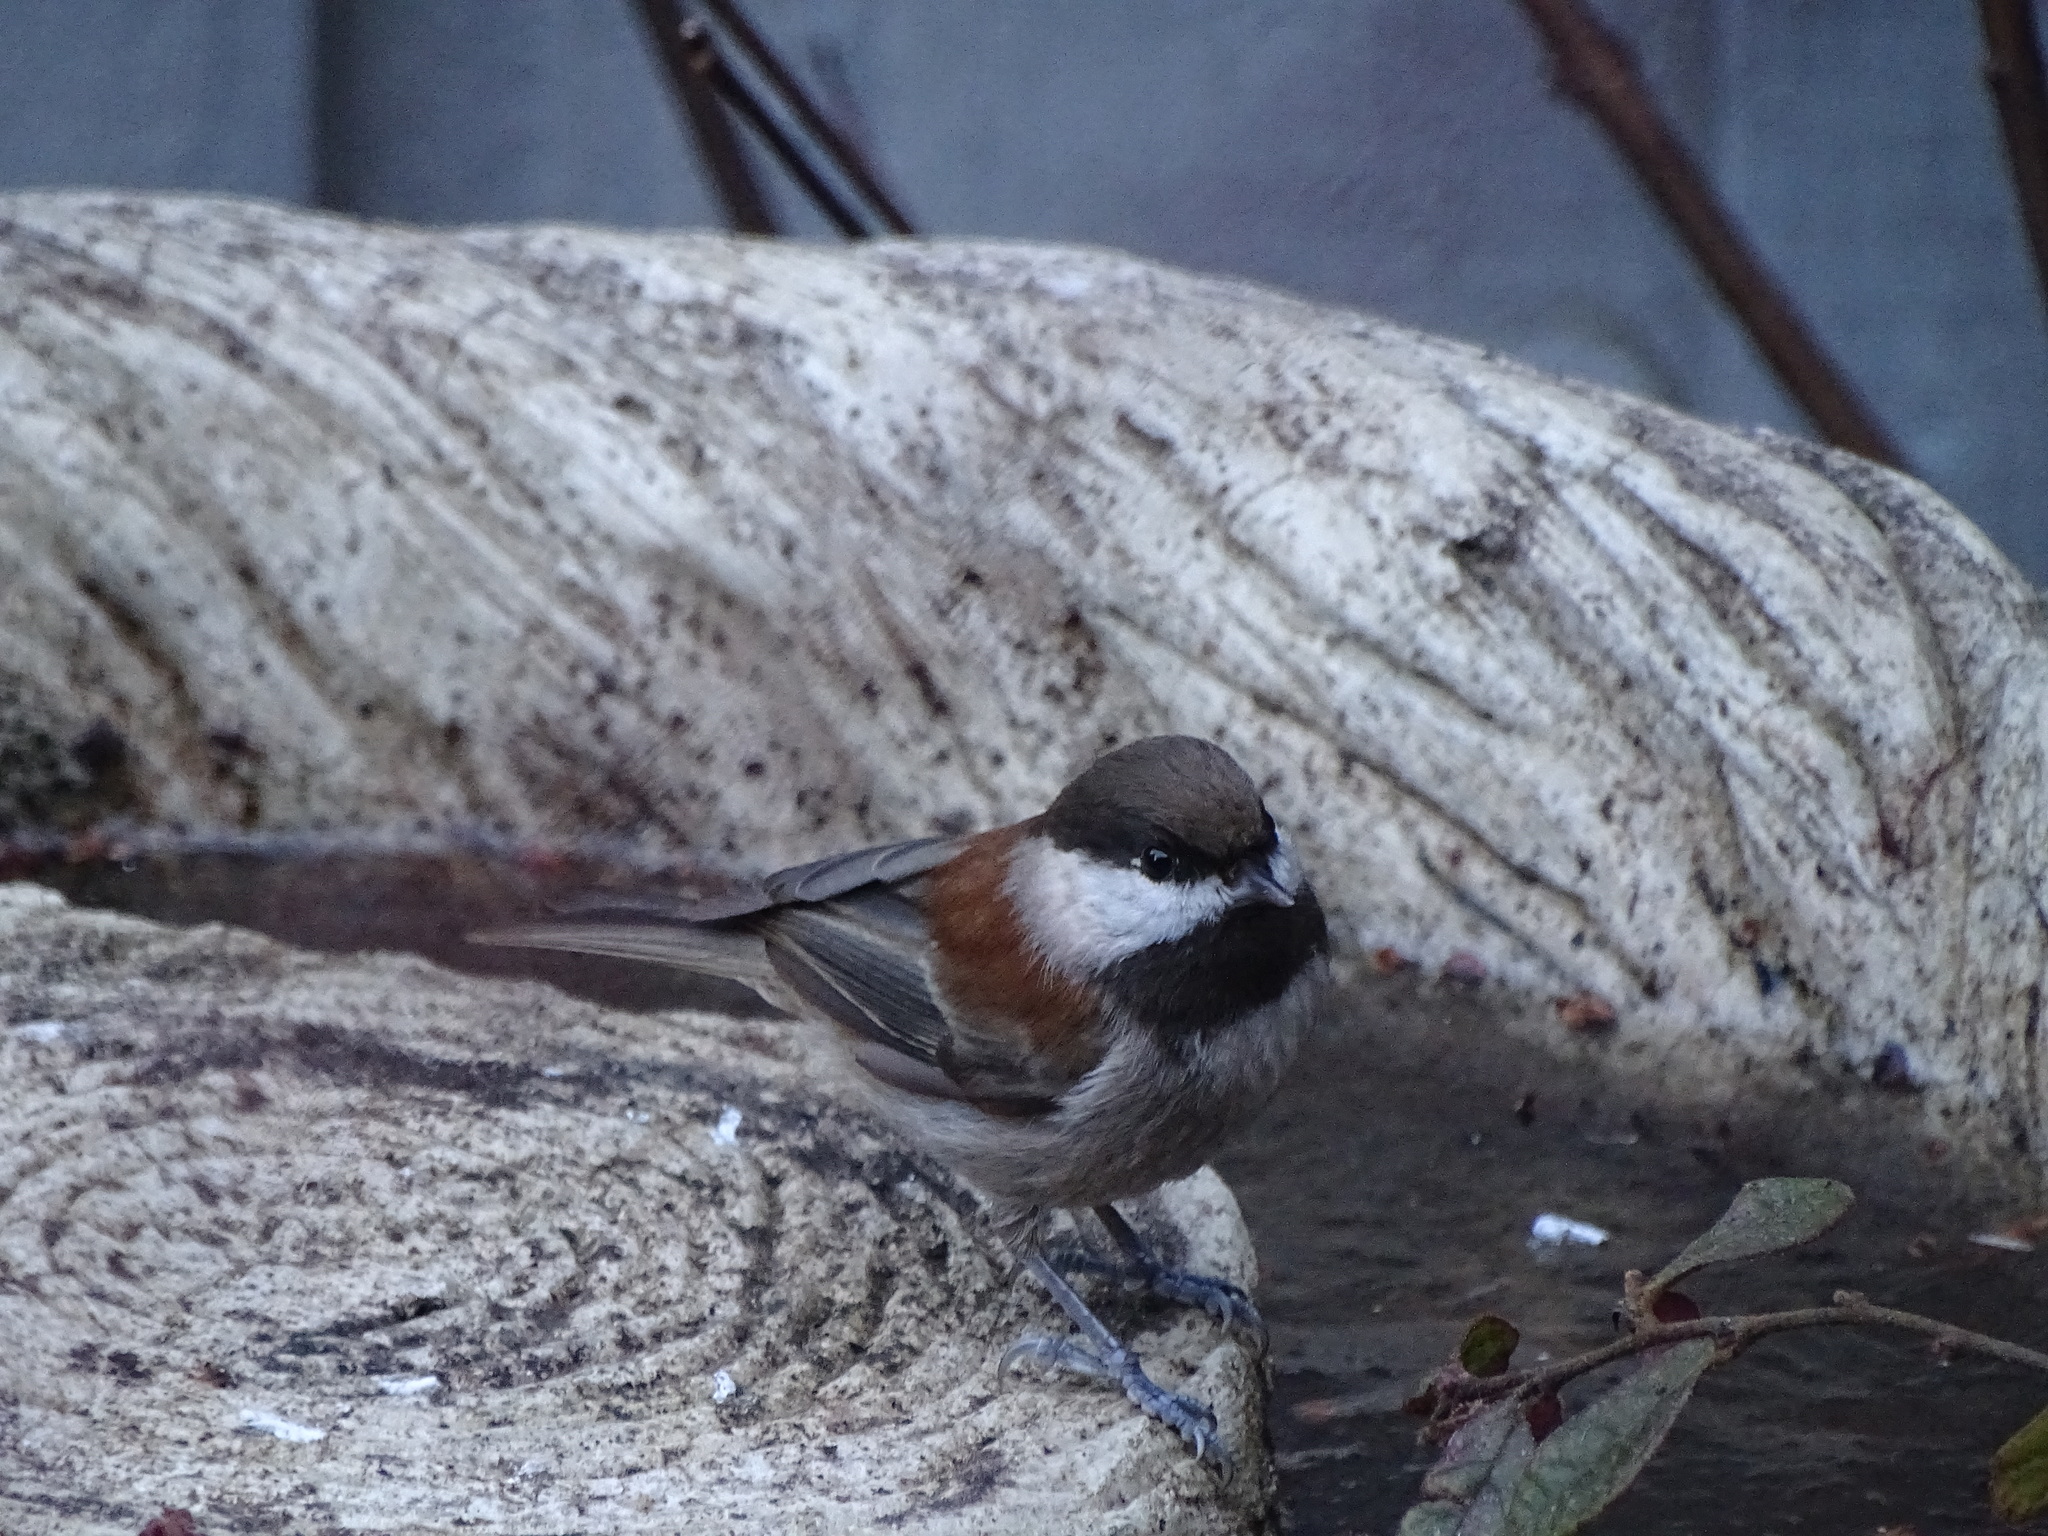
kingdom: Animalia
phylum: Chordata
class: Aves
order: Passeriformes
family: Paridae
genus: Poecile
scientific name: Poecile rufescens
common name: Chestnut-backed chickadee
